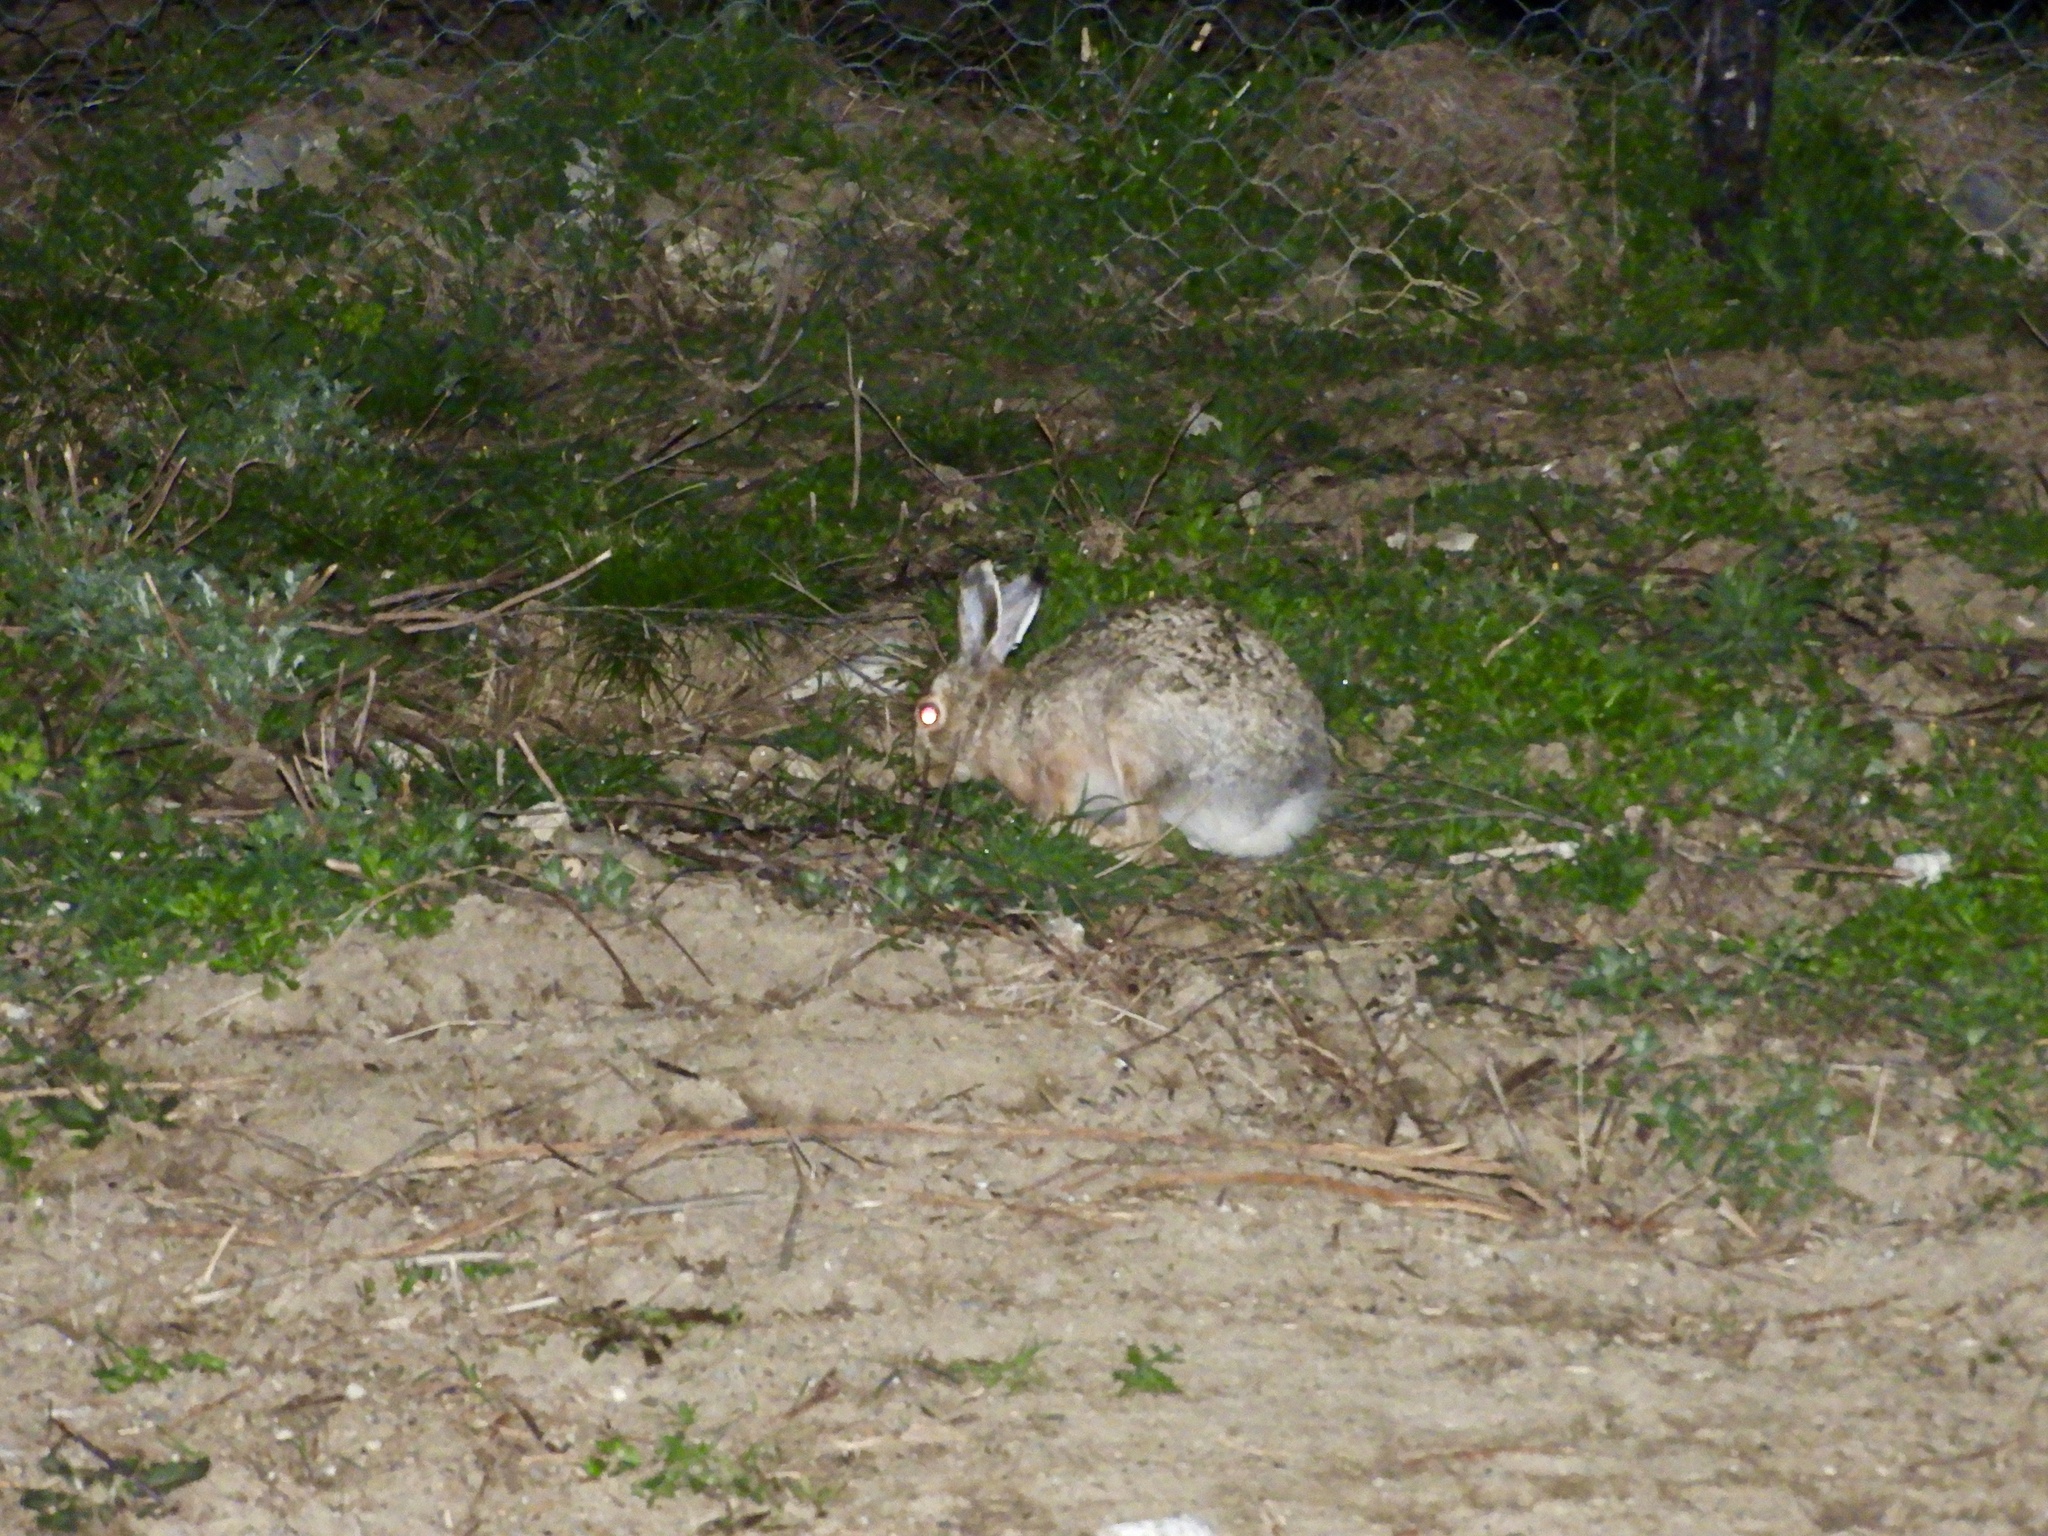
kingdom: Animalia
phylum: Chordata
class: Mammalia
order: Lagomorpha
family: Leporidae
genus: Lepus
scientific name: Lepus europaeus
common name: European hare
